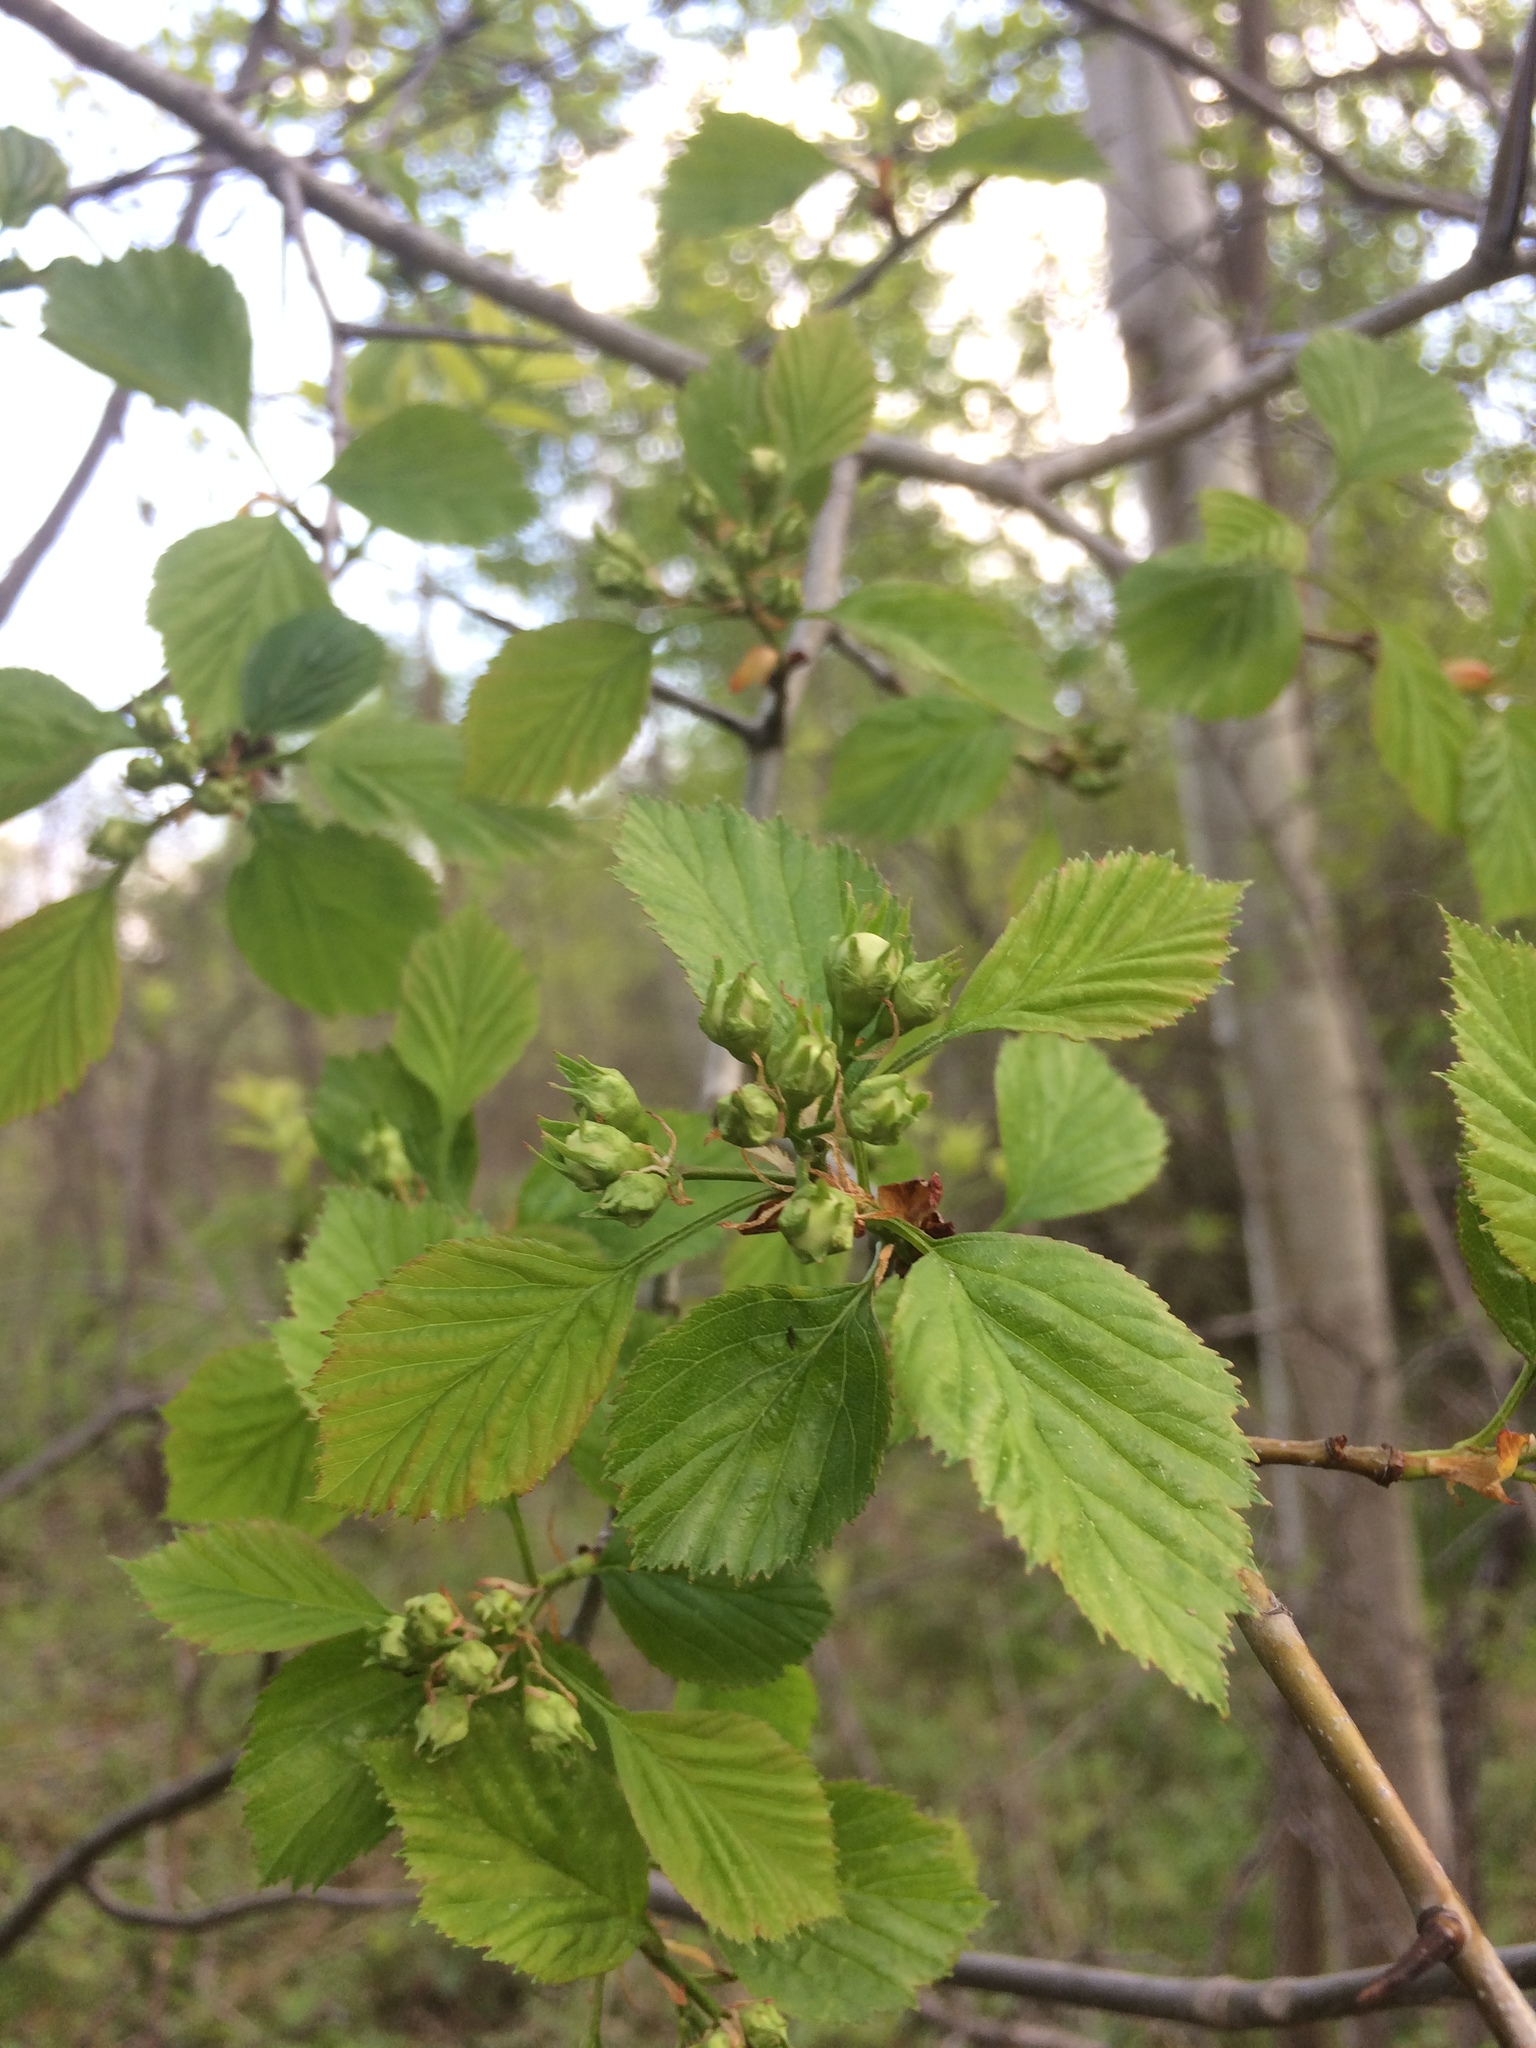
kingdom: Plantae
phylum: Tracheophyta
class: Magnoliopsida
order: Rosales
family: Rosaceae
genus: Crataegus
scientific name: Crataegus suborbiculata
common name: Caughnawaga hawthorn
